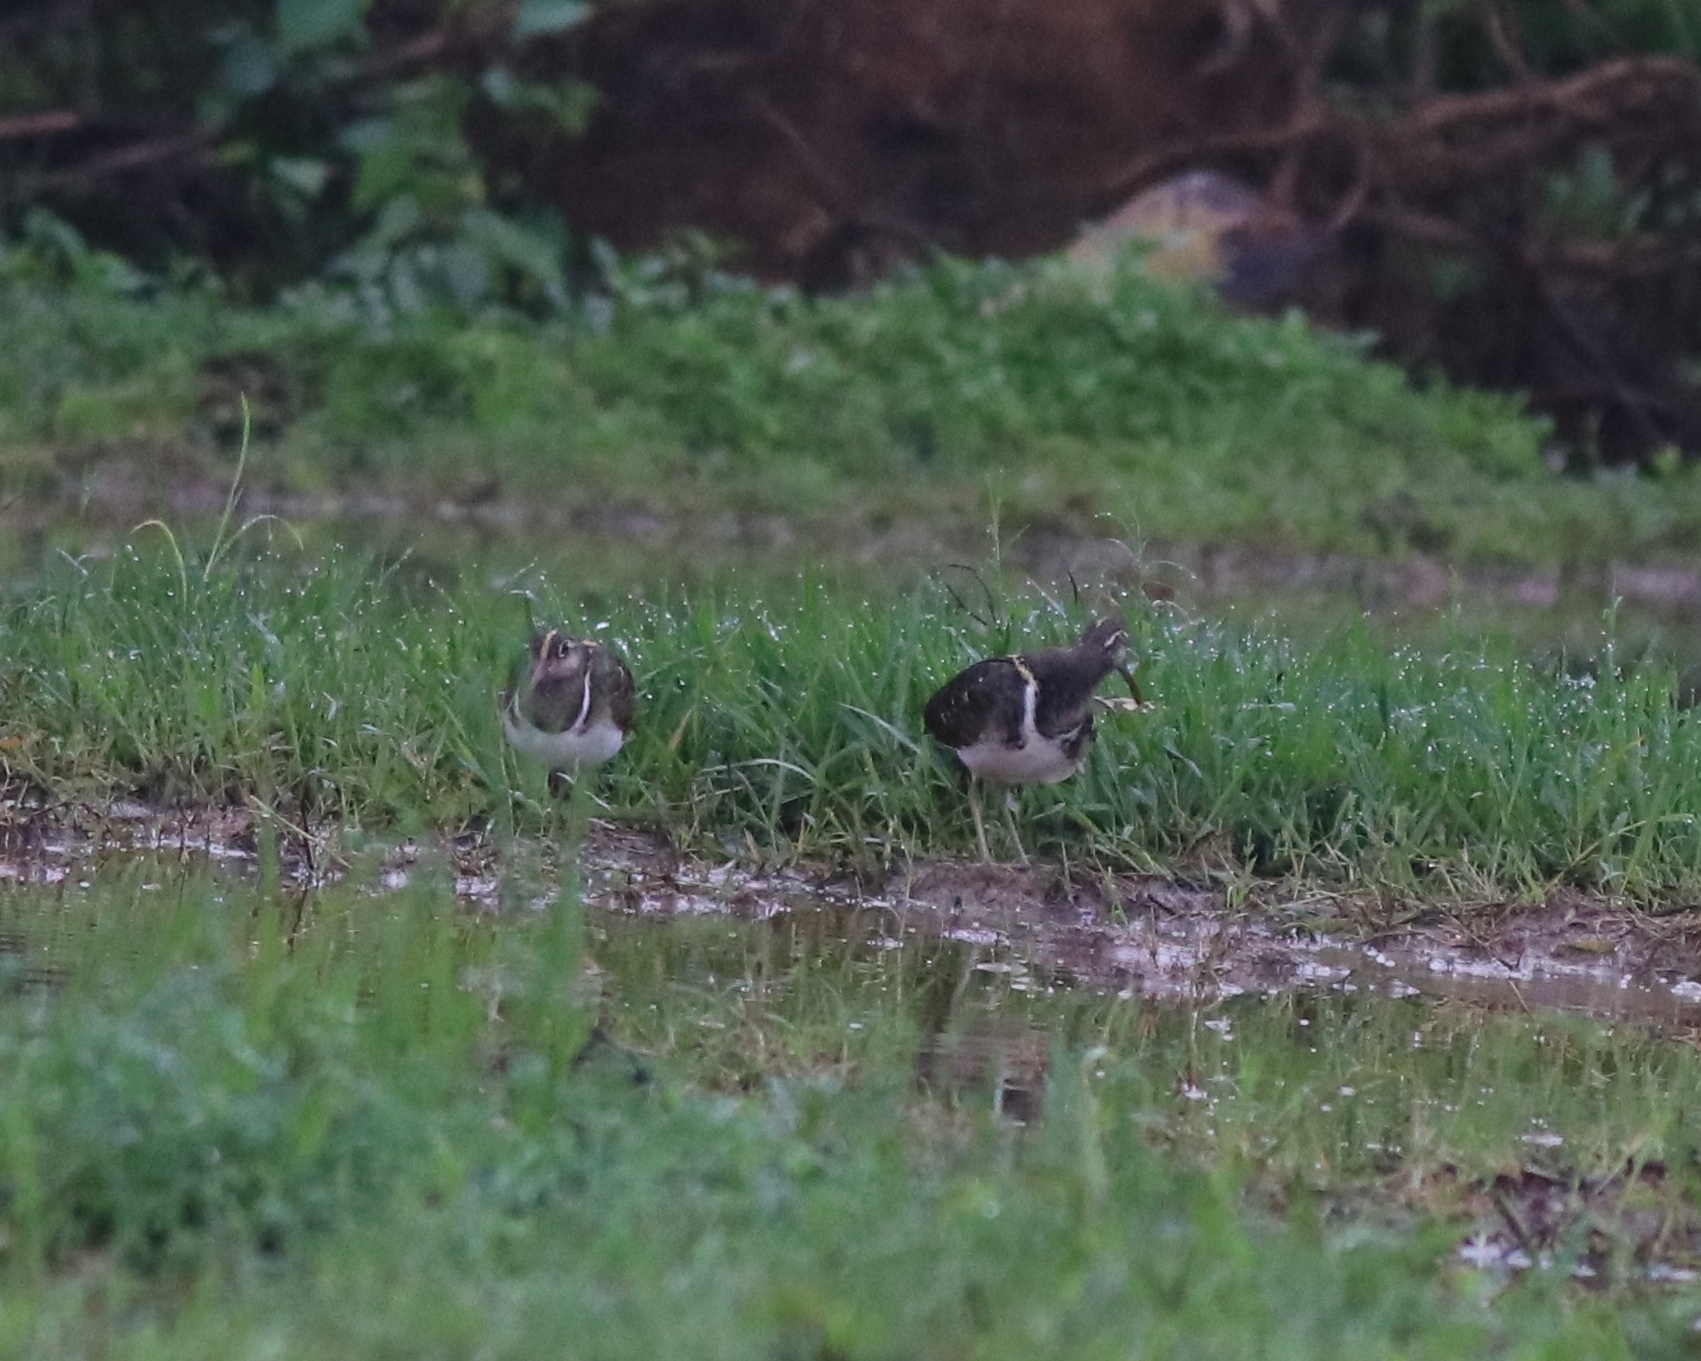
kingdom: Animalia
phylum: Chordata
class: Aves
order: Charadriiformes
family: Rostratulidae
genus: Rostratula
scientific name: Rostratula benghalensis
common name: Greater painted-snipe
